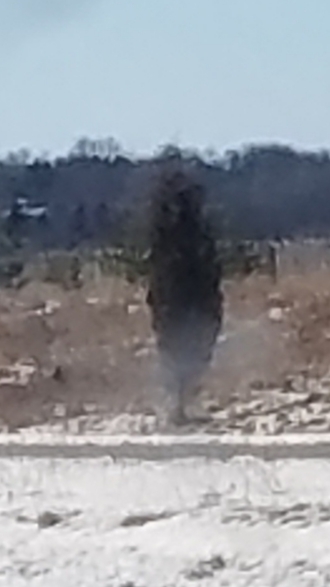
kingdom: Plantae
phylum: Tracheophyta
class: Pinopsida
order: Pinales
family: Cupressaceae
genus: Juniperus
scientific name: Juniperus virginiana
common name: Red juniper
